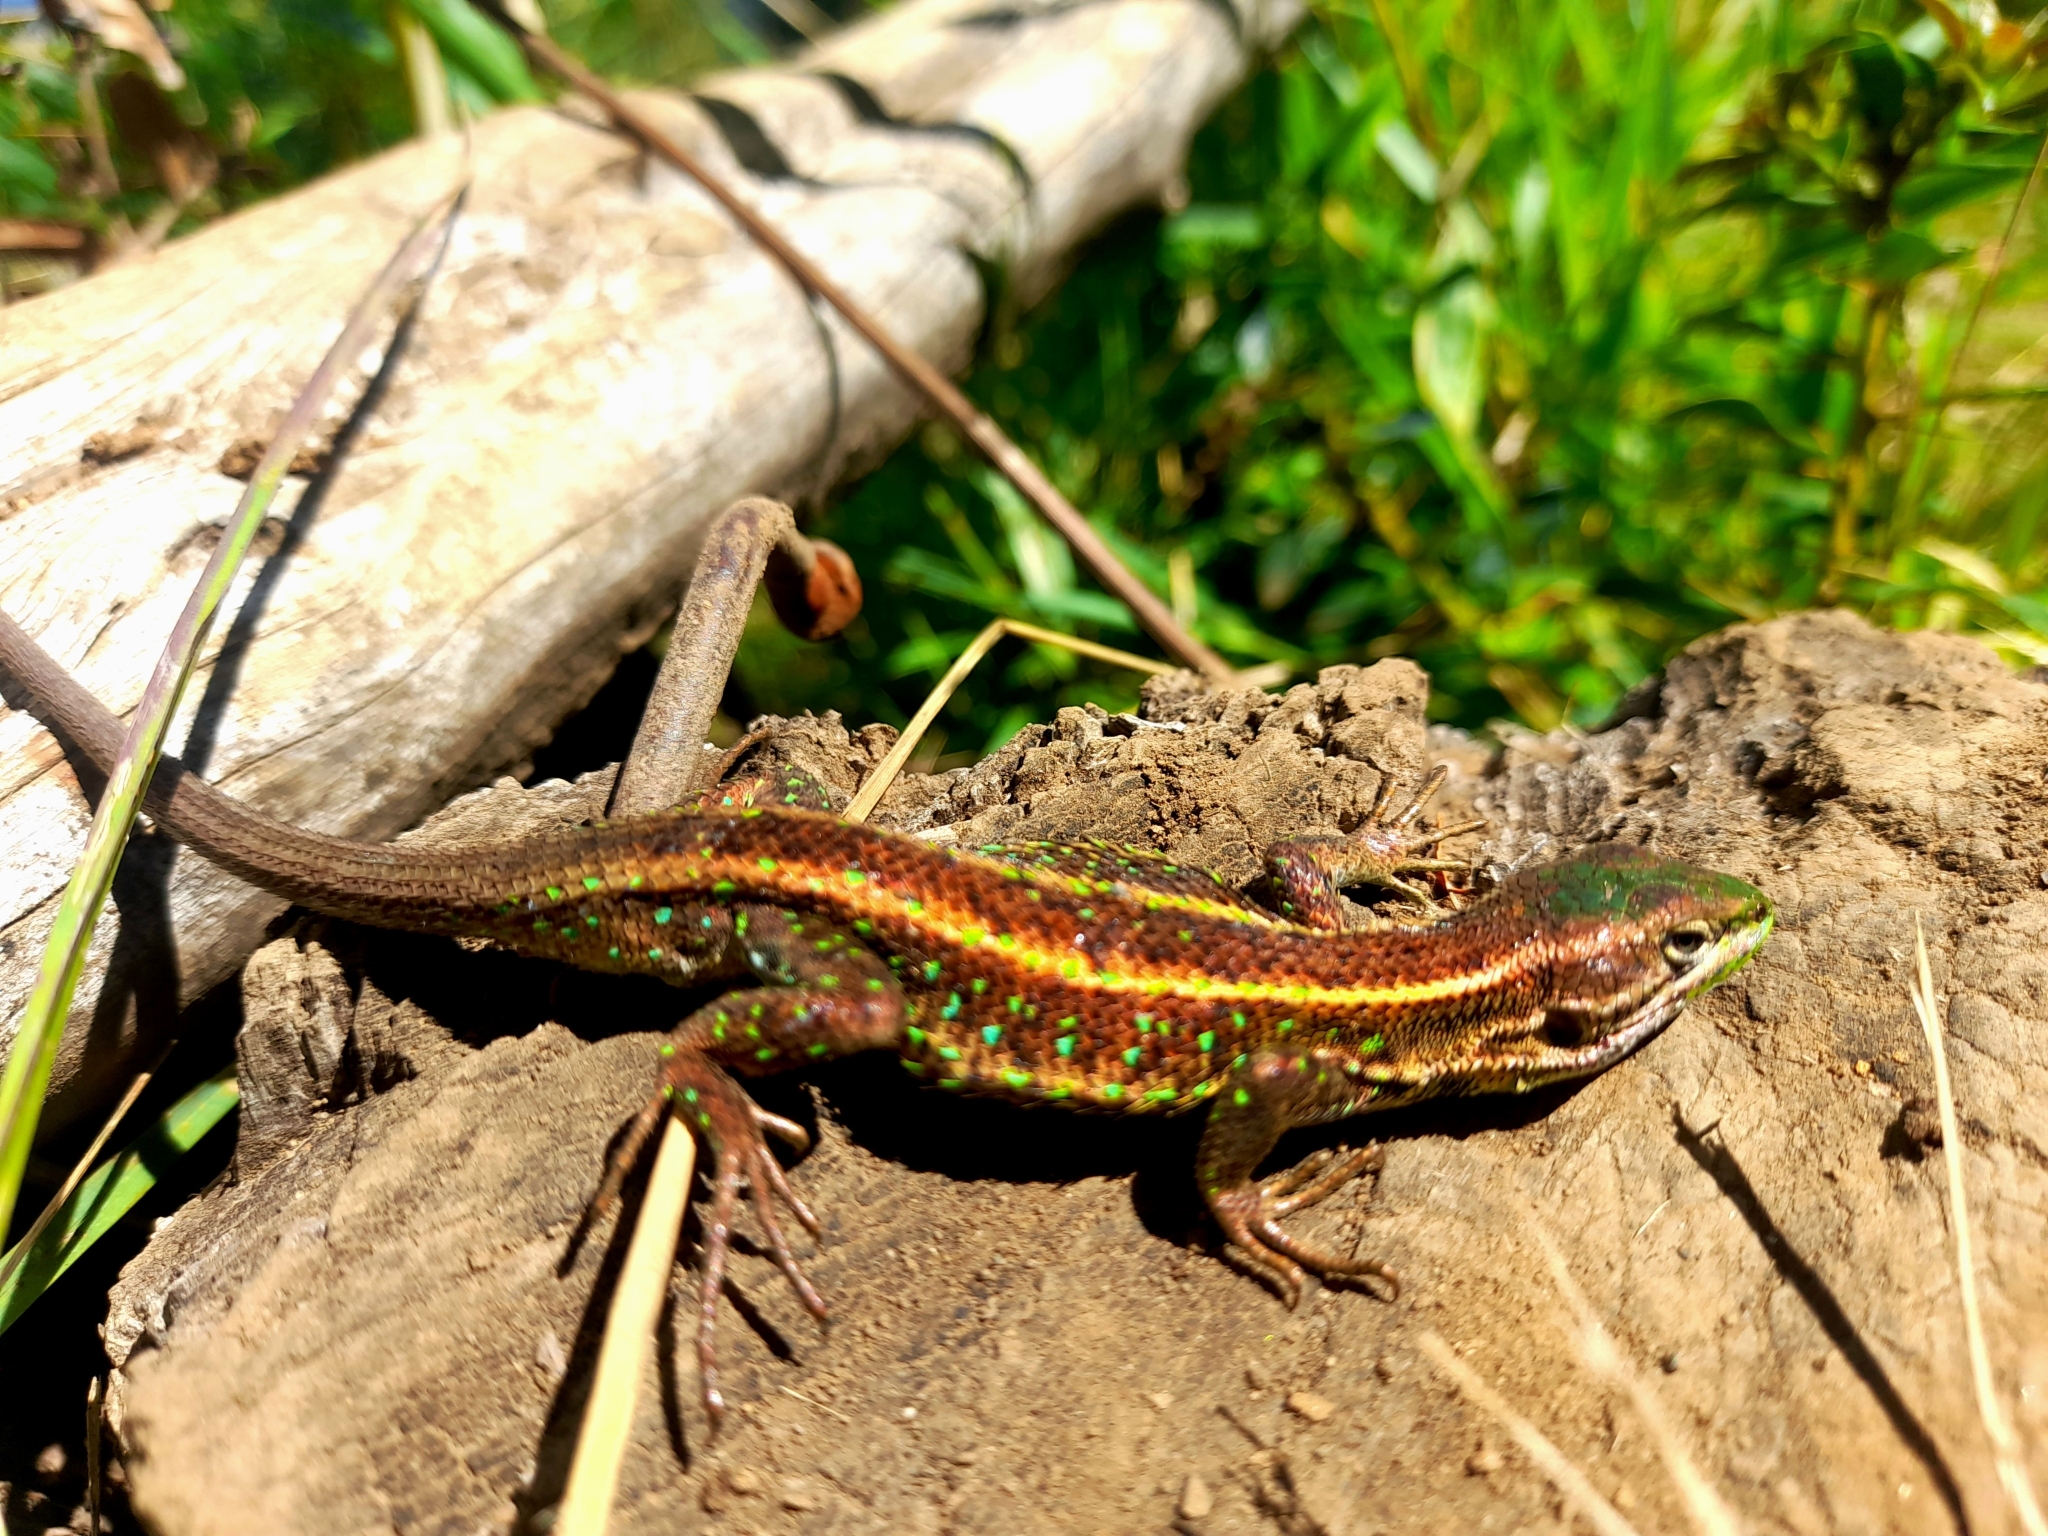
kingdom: Animalia
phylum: Chordata
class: Squamata
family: Liolaemidae
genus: Liolaemus
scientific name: Liolaemus cyanogaster
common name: Cyan tree iguana
